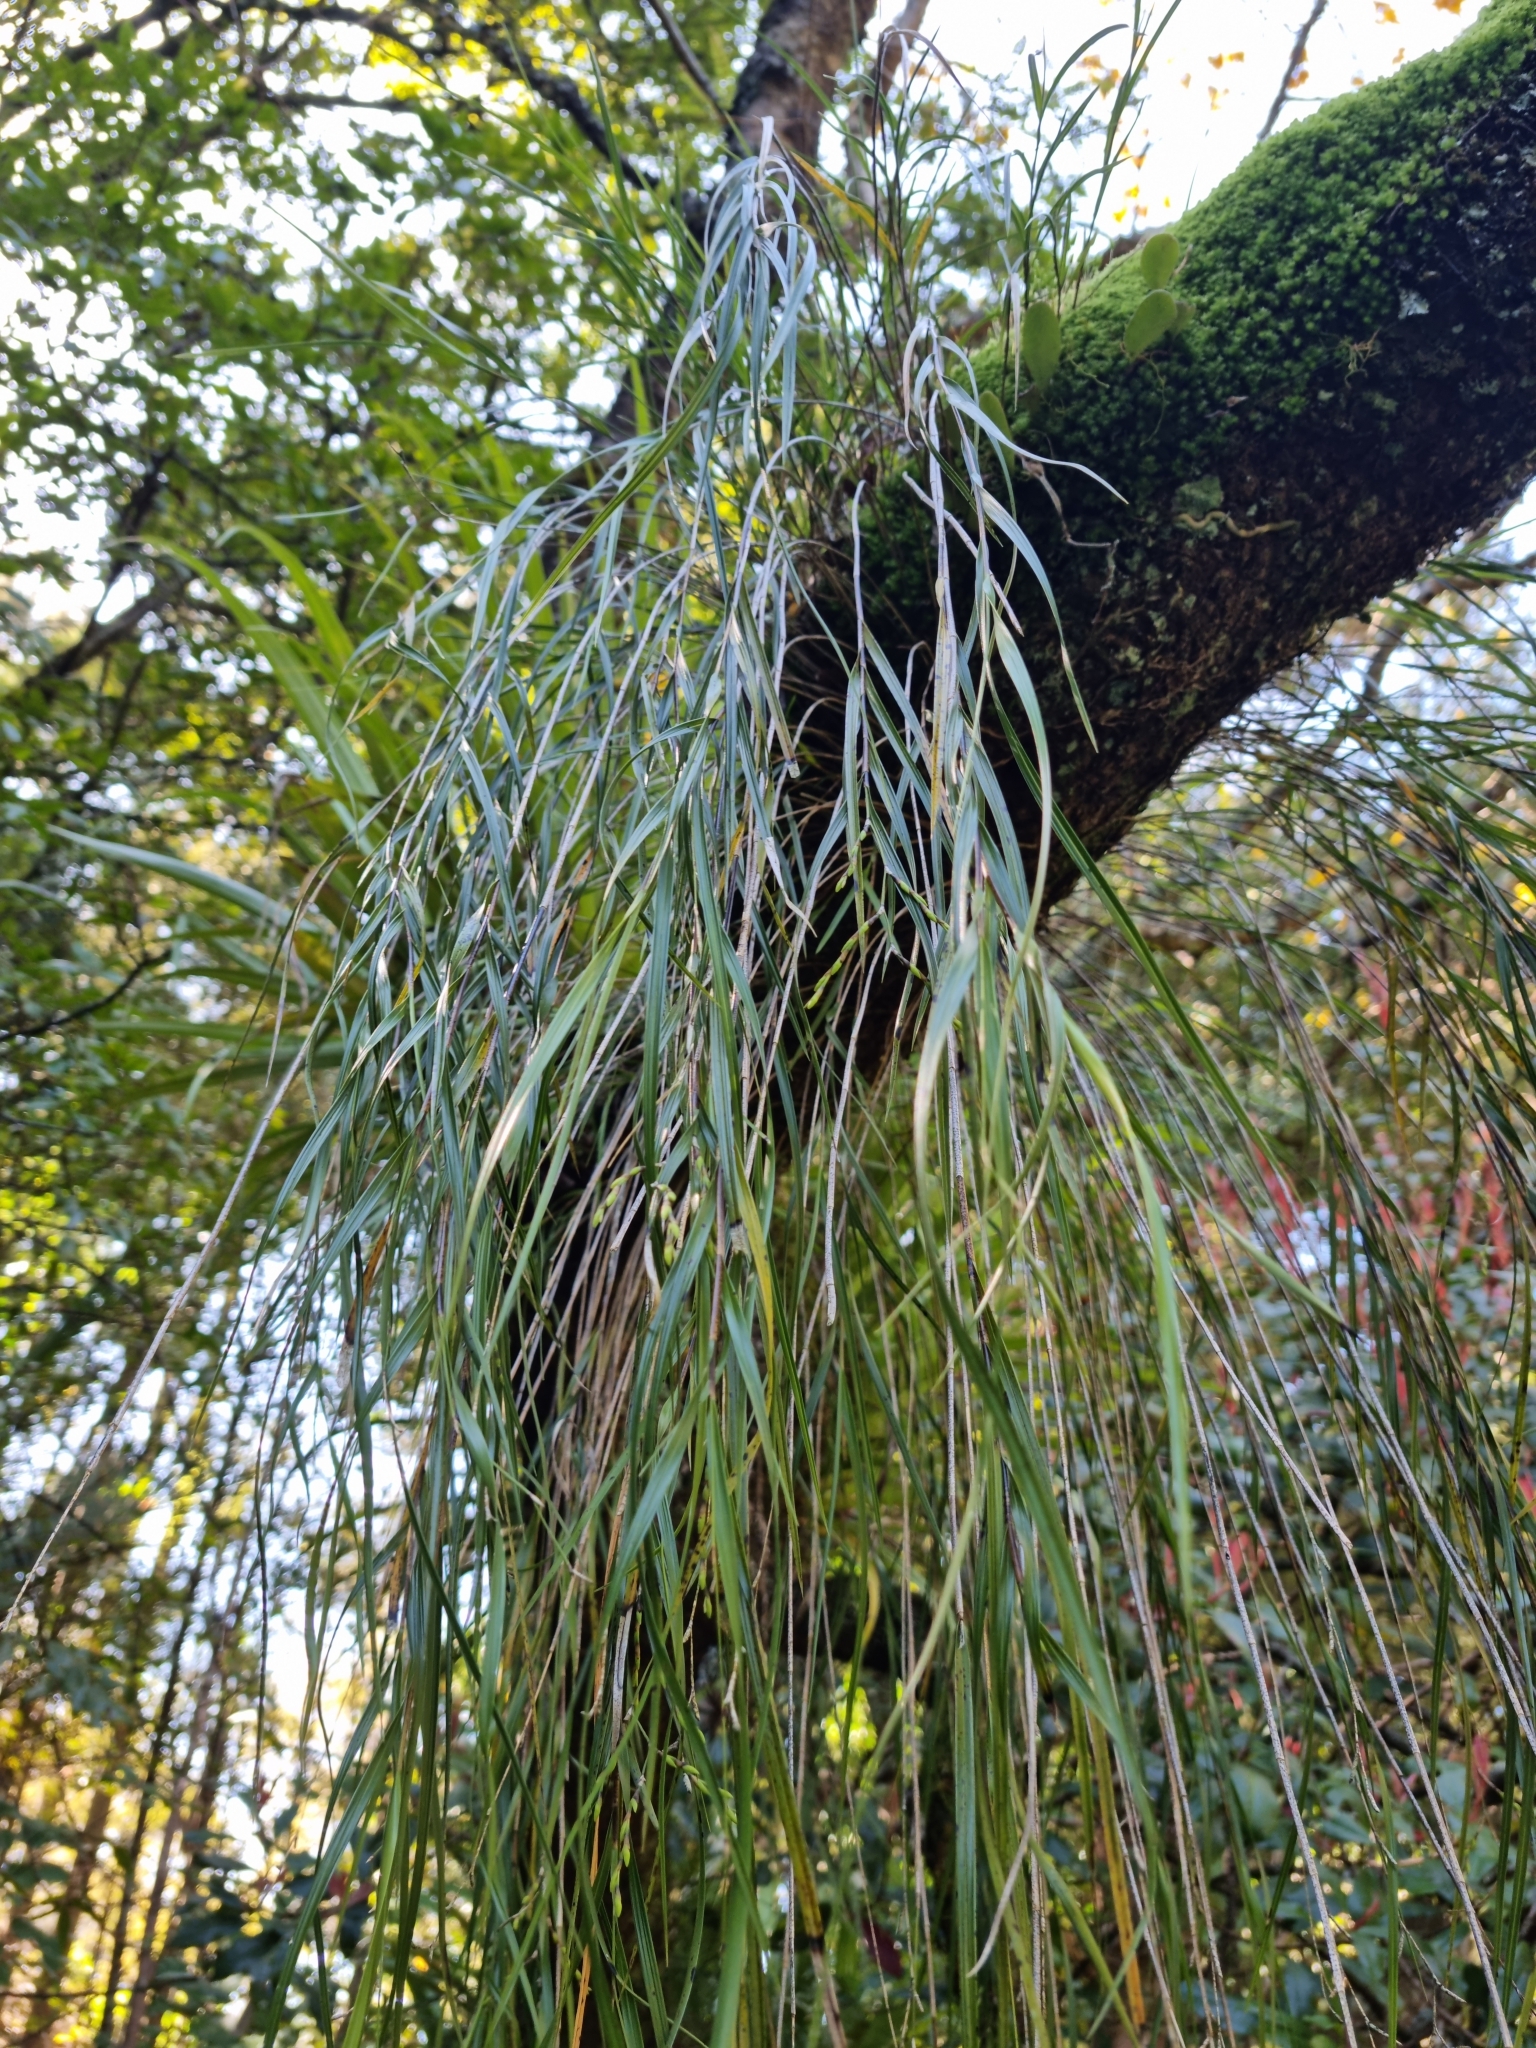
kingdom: Plantae
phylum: Tracheophyta
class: Liliopsida
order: Asparagales
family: Orchidaceae
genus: Earina
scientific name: Earina mucronata
